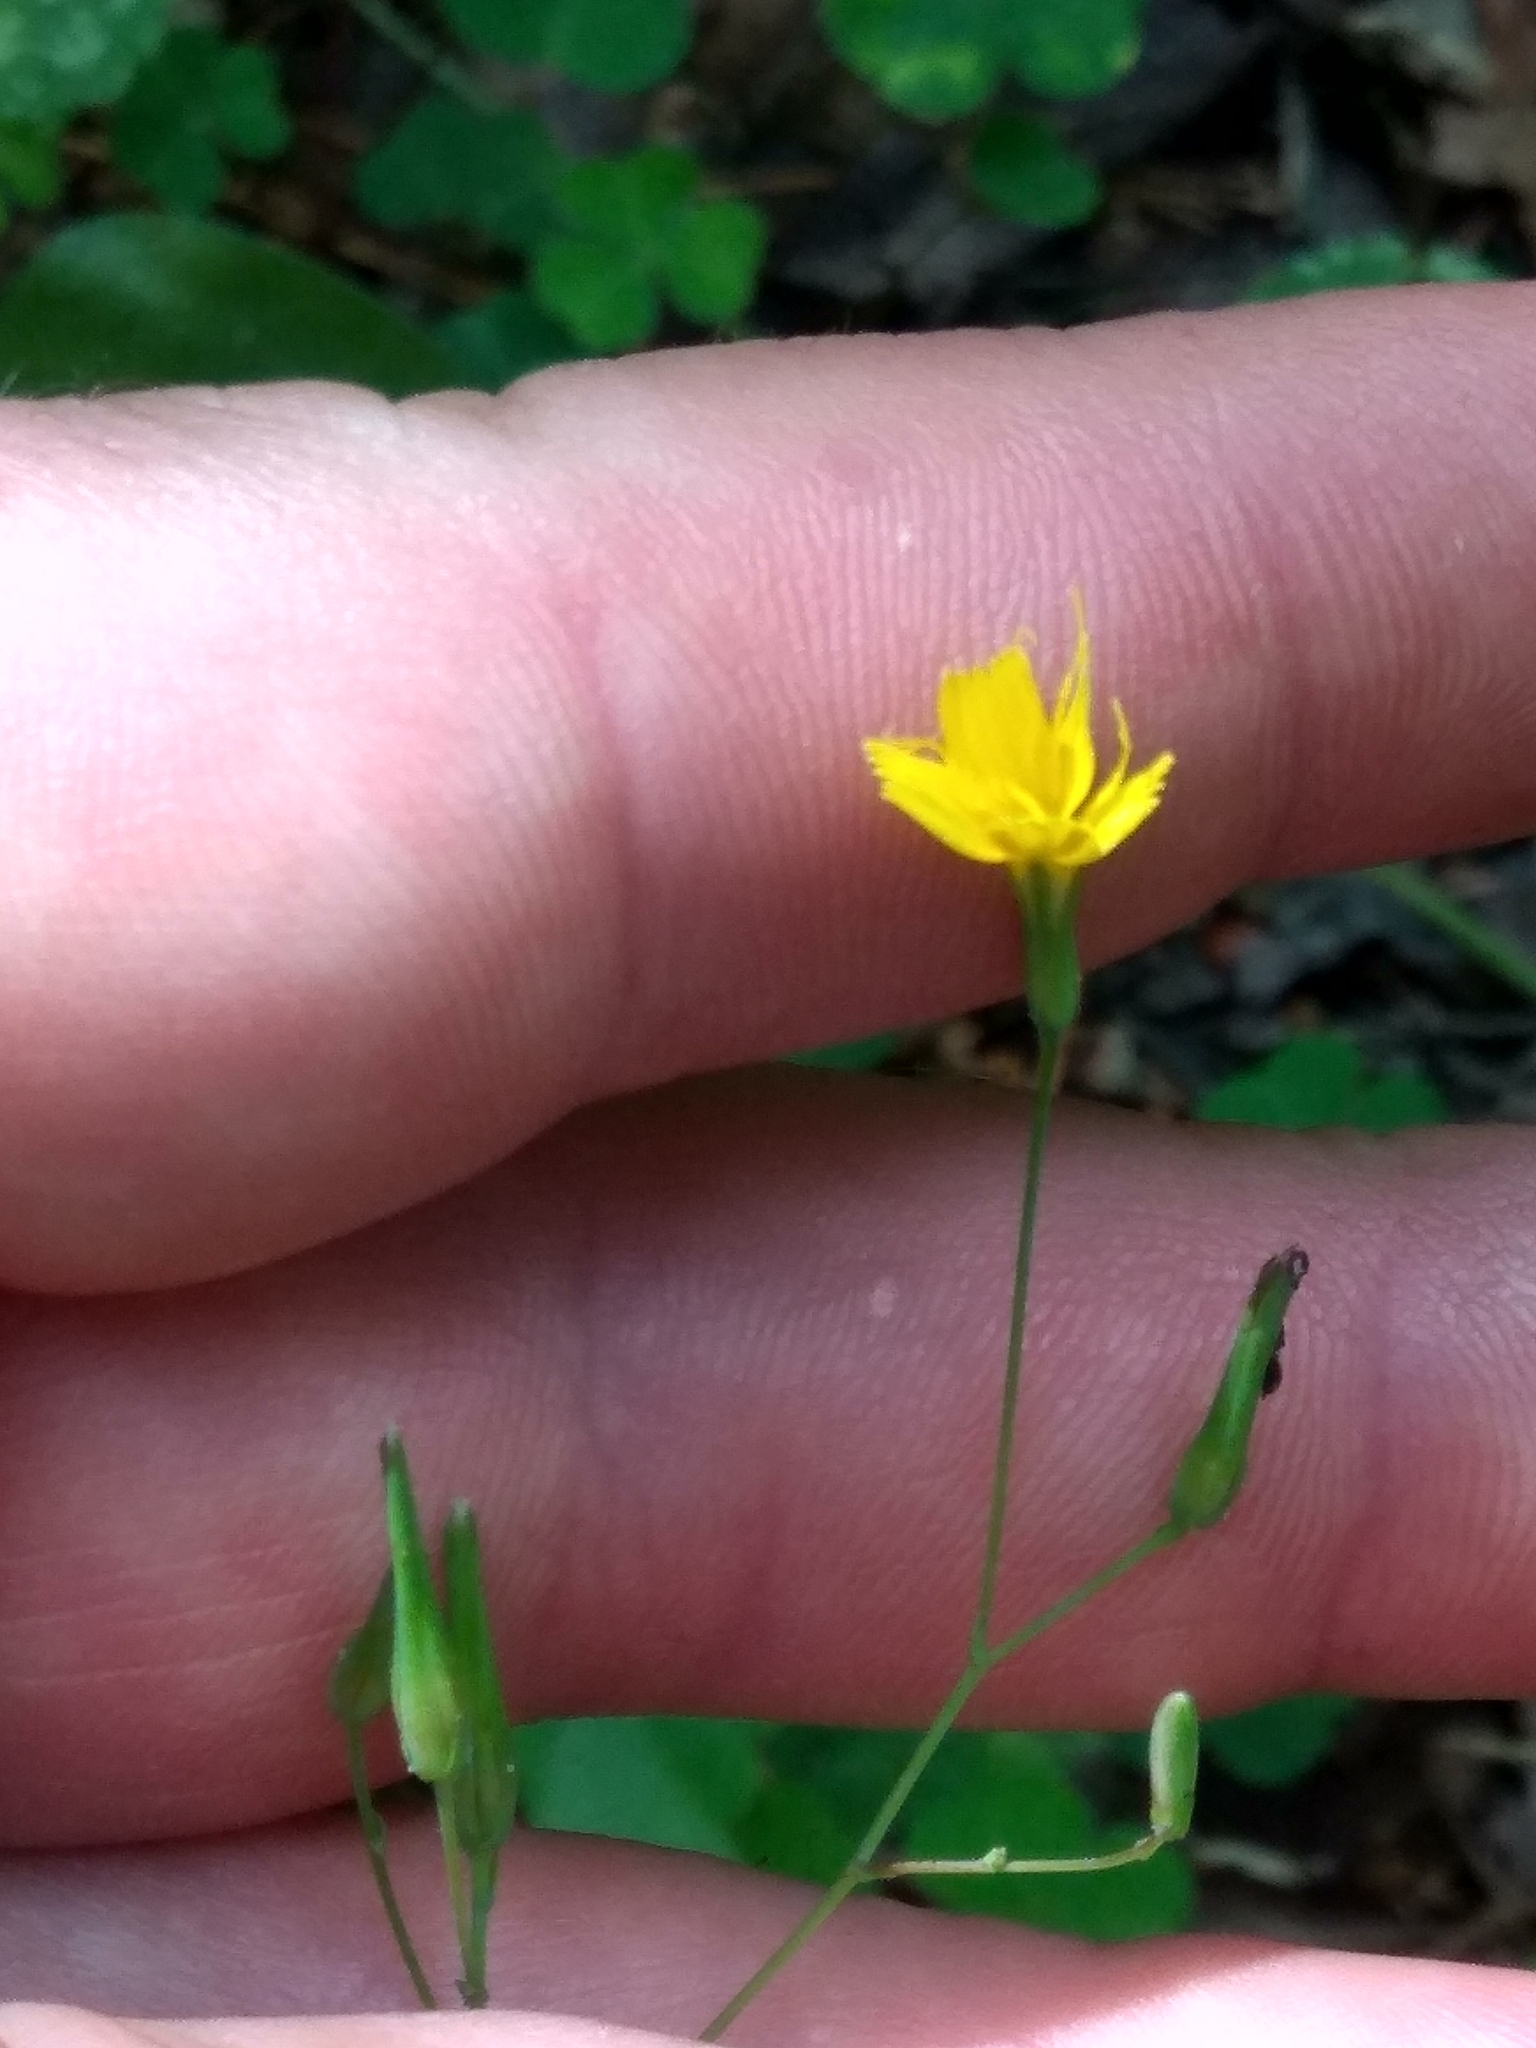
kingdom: Plantae
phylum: Tracheophyta
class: Magnoliopsida
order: Asterales
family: Asteraceae
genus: Mycelis
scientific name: Mycelis muralis
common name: Wall lettuce
